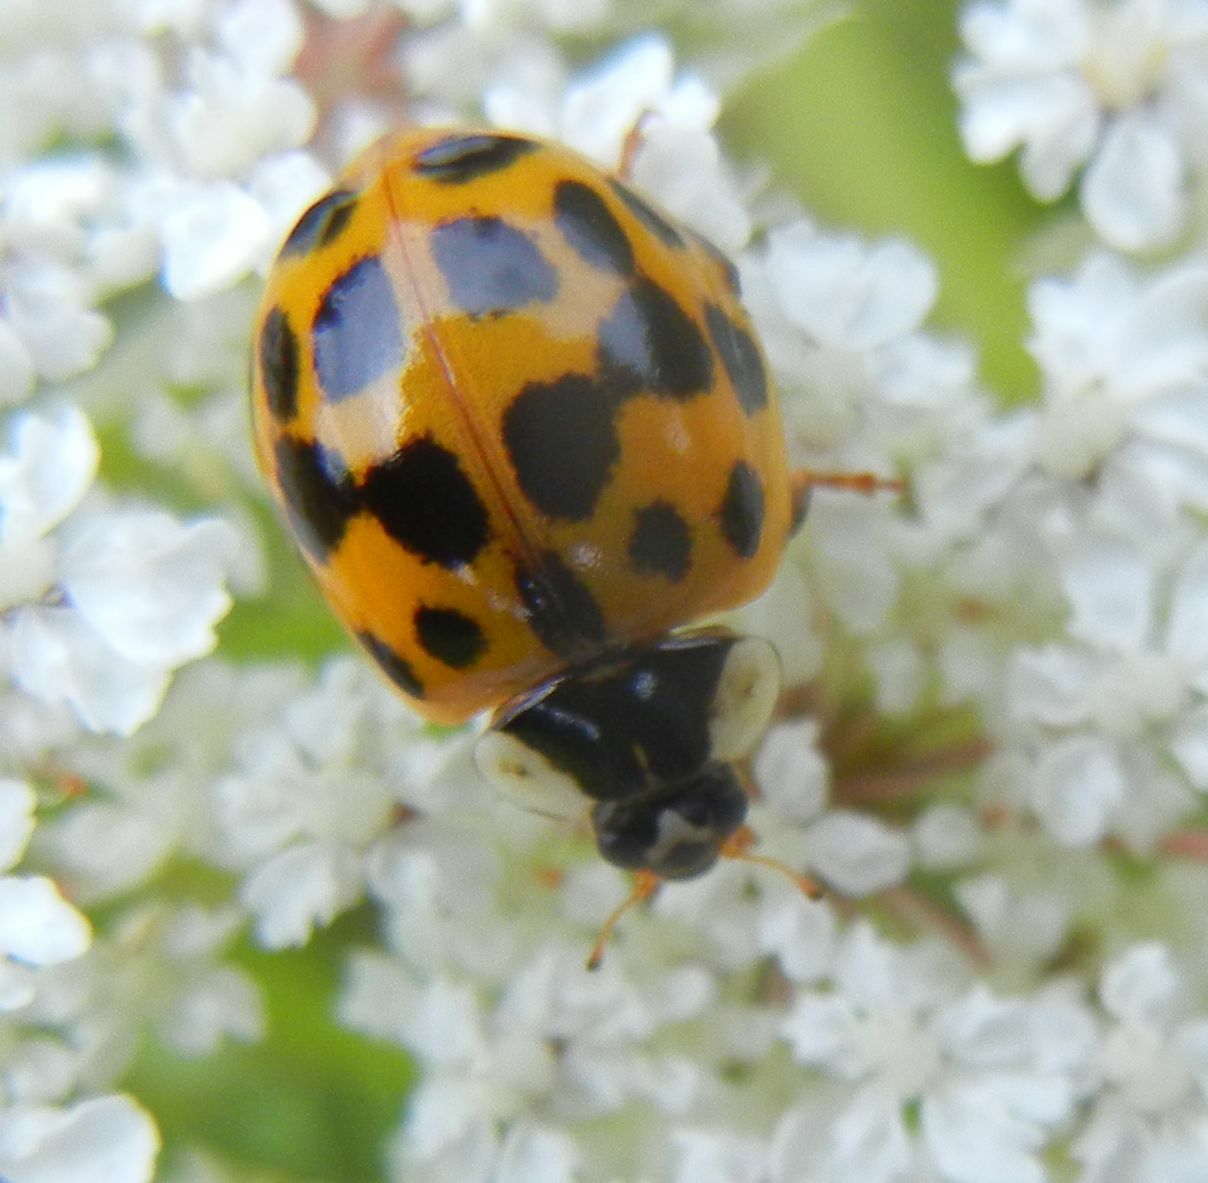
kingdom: Animalia
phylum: Arthropoda
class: Insecta
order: Coleoptera
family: Coccinellidae
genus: Harmonia
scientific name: Harmonia axyridis
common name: Harlequin ladybird
